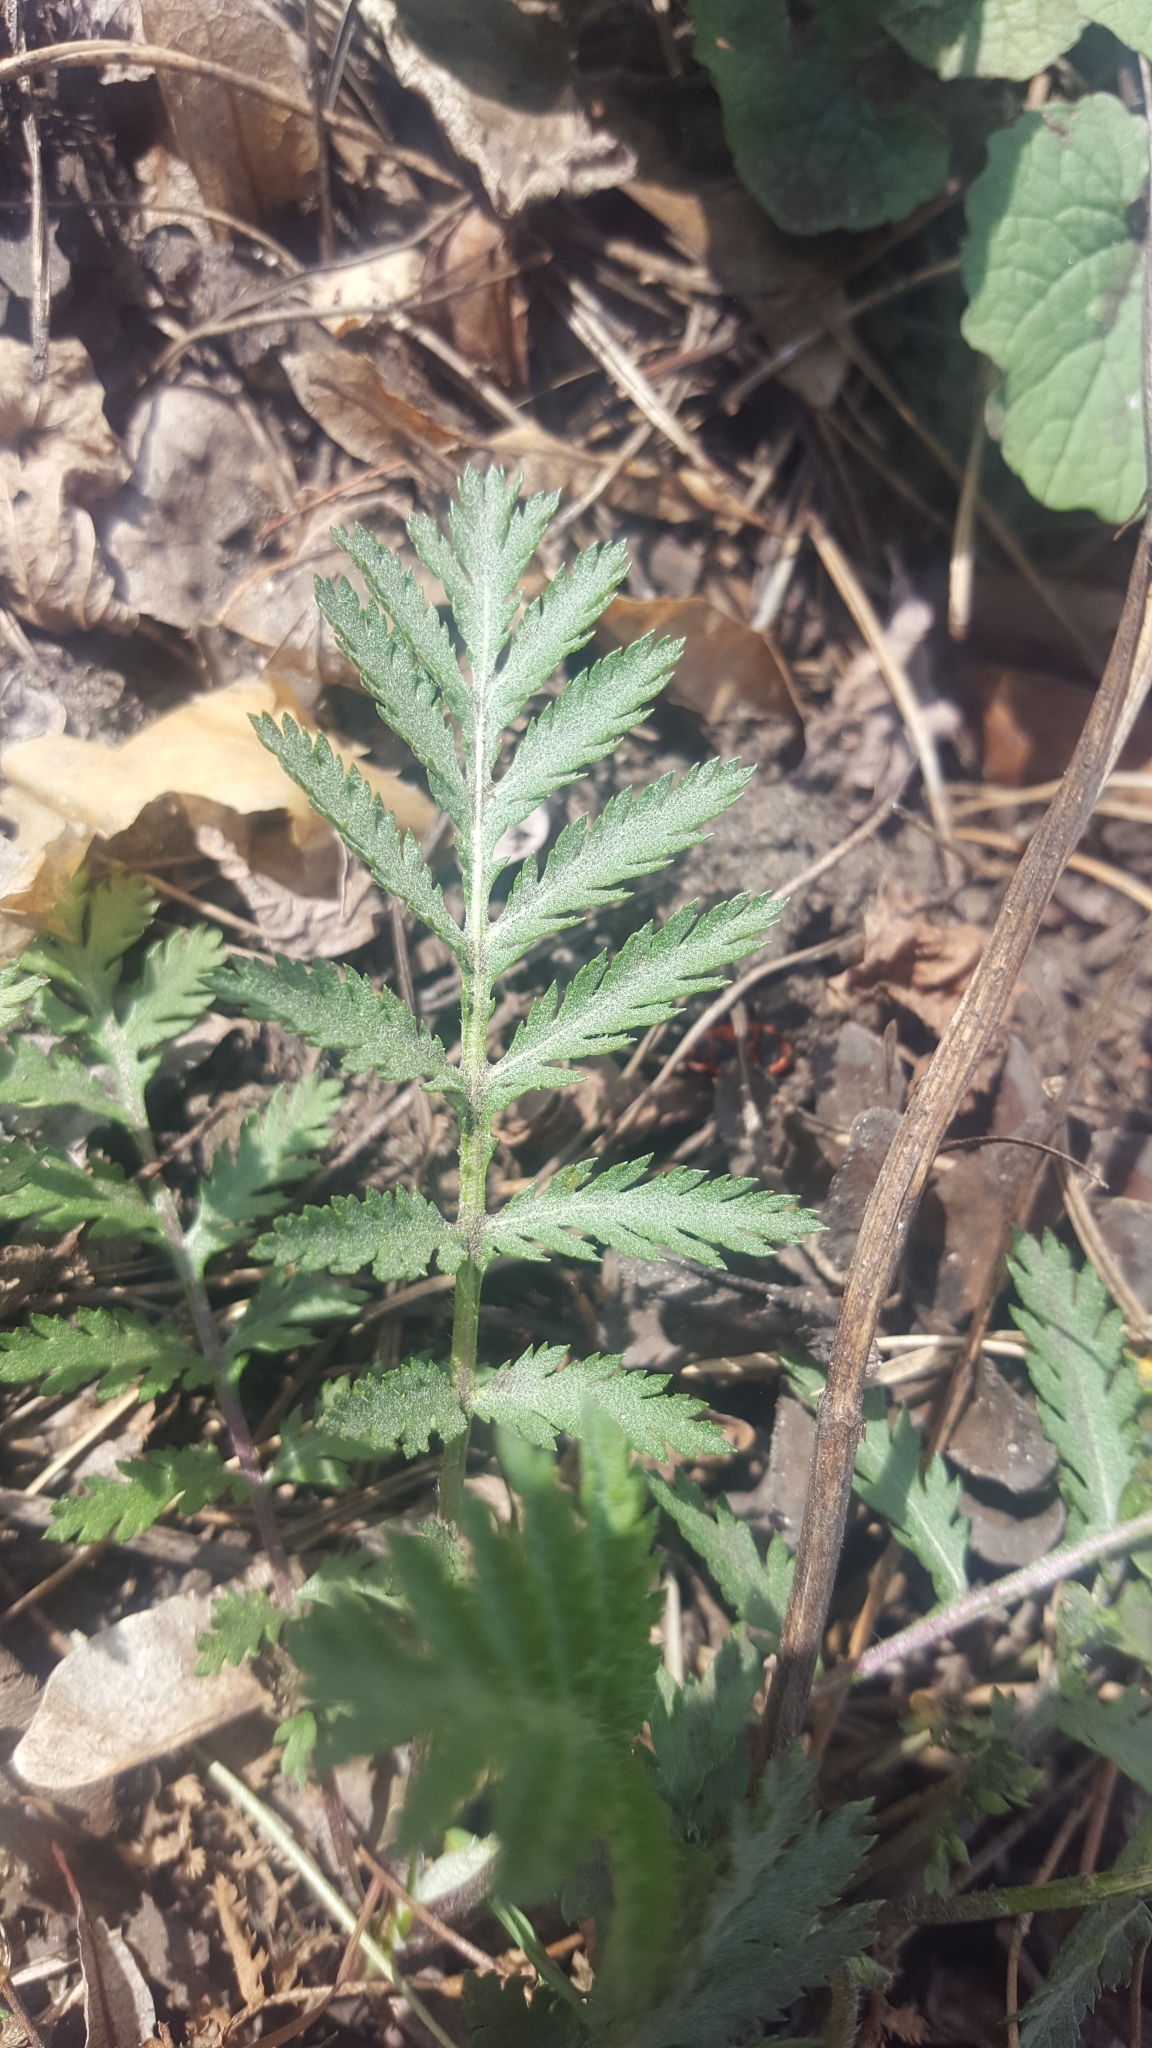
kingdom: Plantae
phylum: Tracheophyta
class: Magnoliopsida
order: Asterales
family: Asteraceae
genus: Tanacetum
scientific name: Tanacetum vulgare
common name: Common tansy
